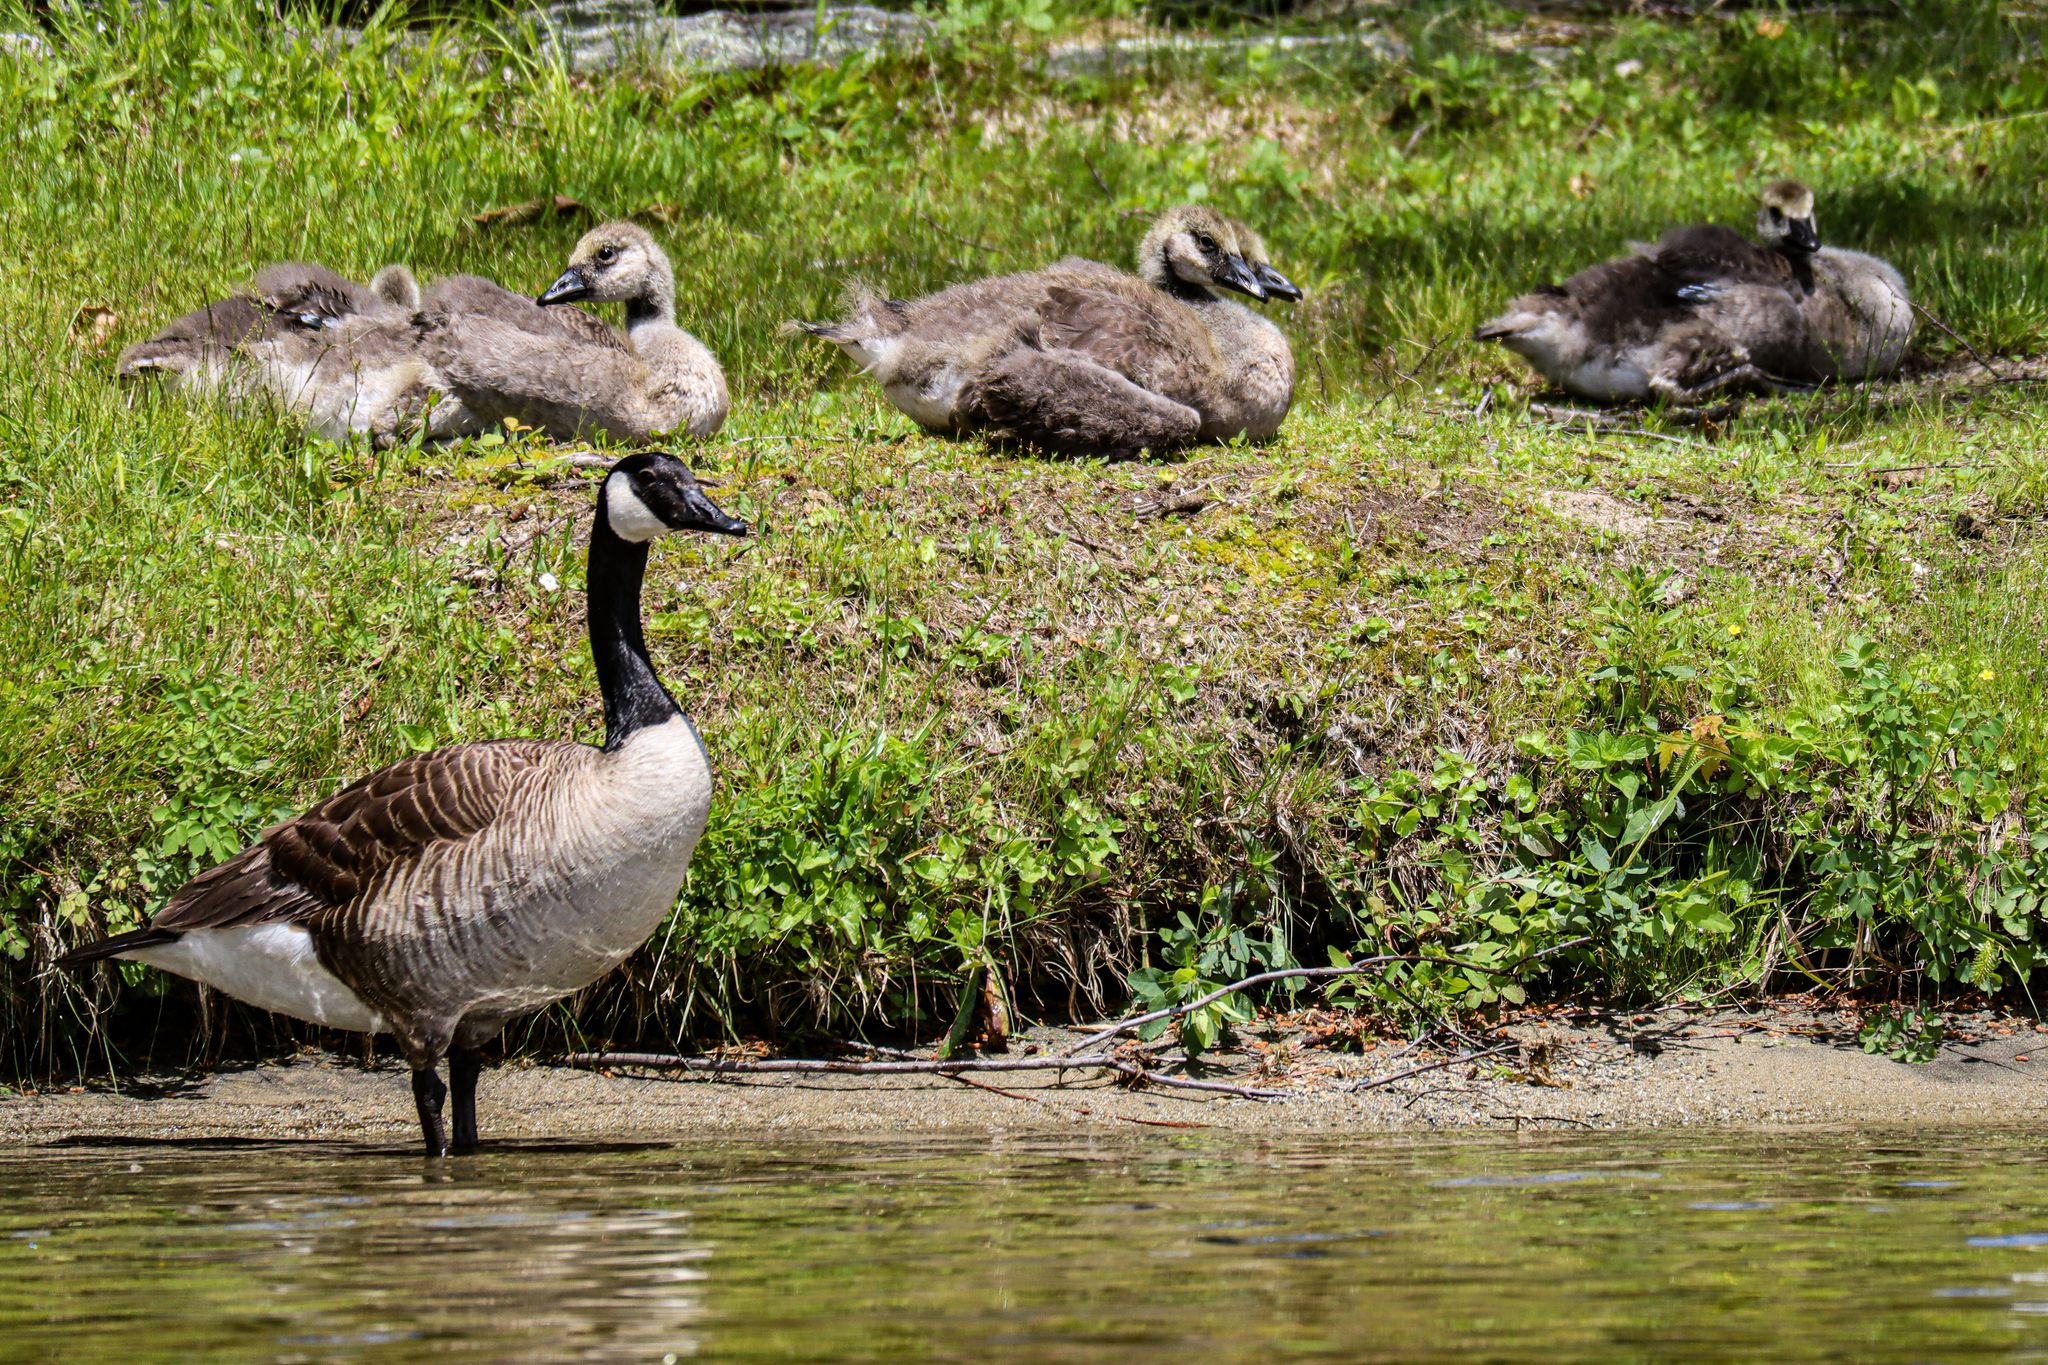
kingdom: Animalia
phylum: Chordata
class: Aves
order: Anseriformes
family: Anatidae
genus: Branta
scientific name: Branta canadensis
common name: Canada goose
